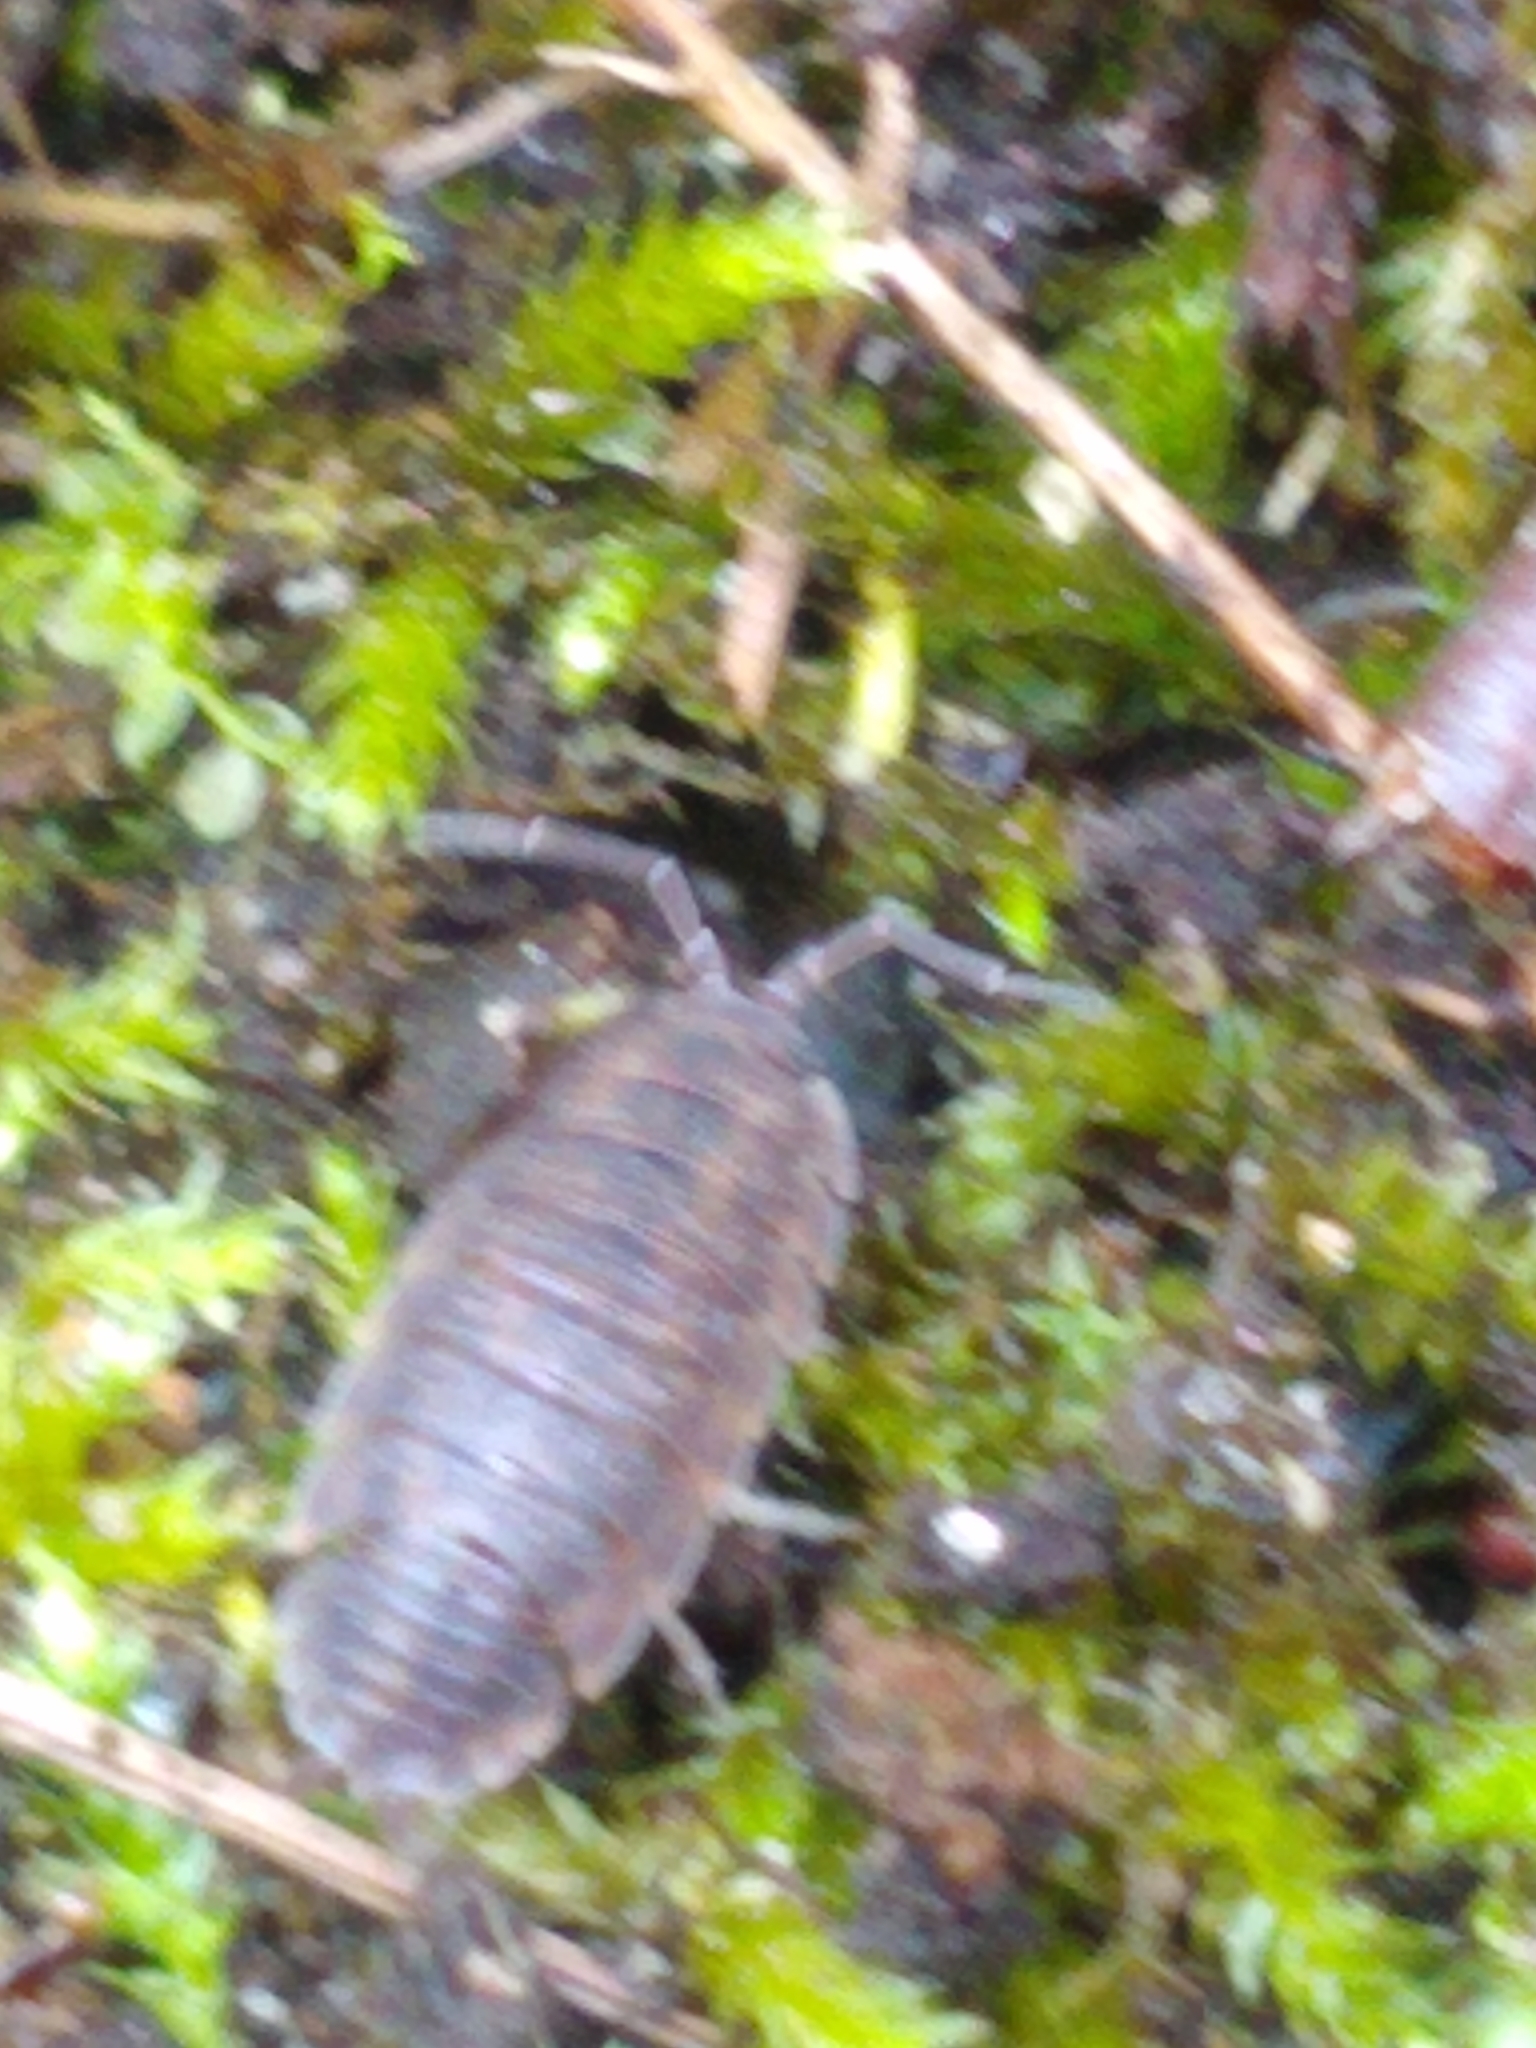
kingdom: Animalia
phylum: Arthropoda
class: Malacostraca
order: Isopoda
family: Porcellionidae
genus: Porcellio
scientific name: Porcellio scaber
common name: Common rough woodlouse
